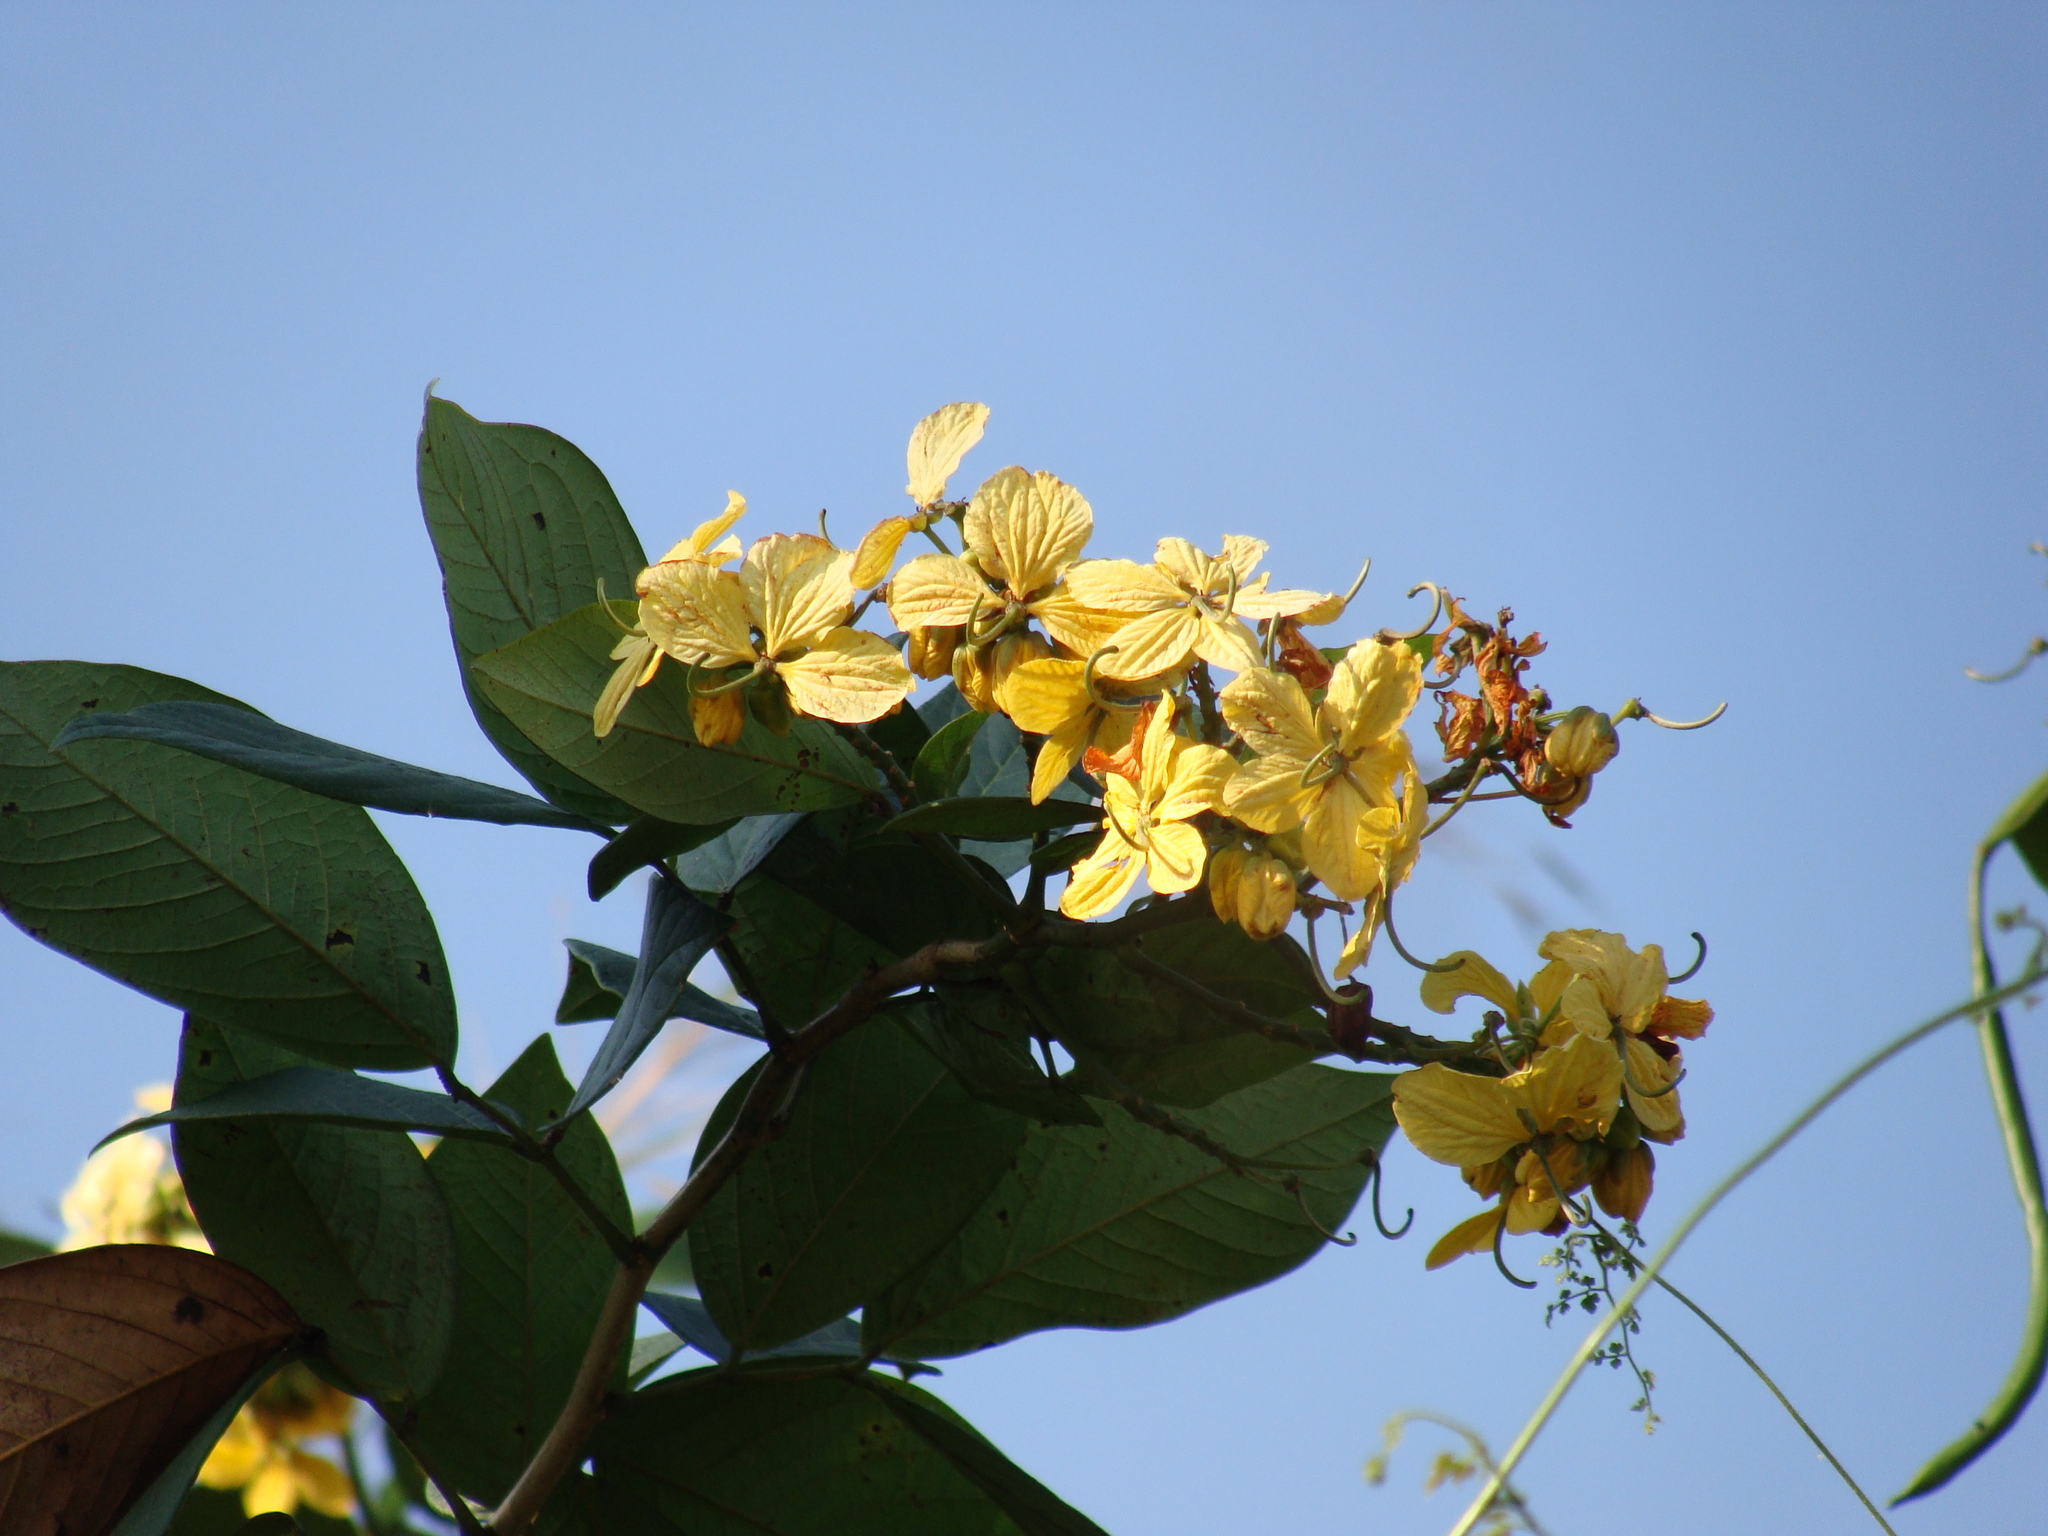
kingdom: Plantae
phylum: Tracheophyta
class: Magnoliopsida
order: Fabales
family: Fabaceae
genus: Senna
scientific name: Senna hayesiana
